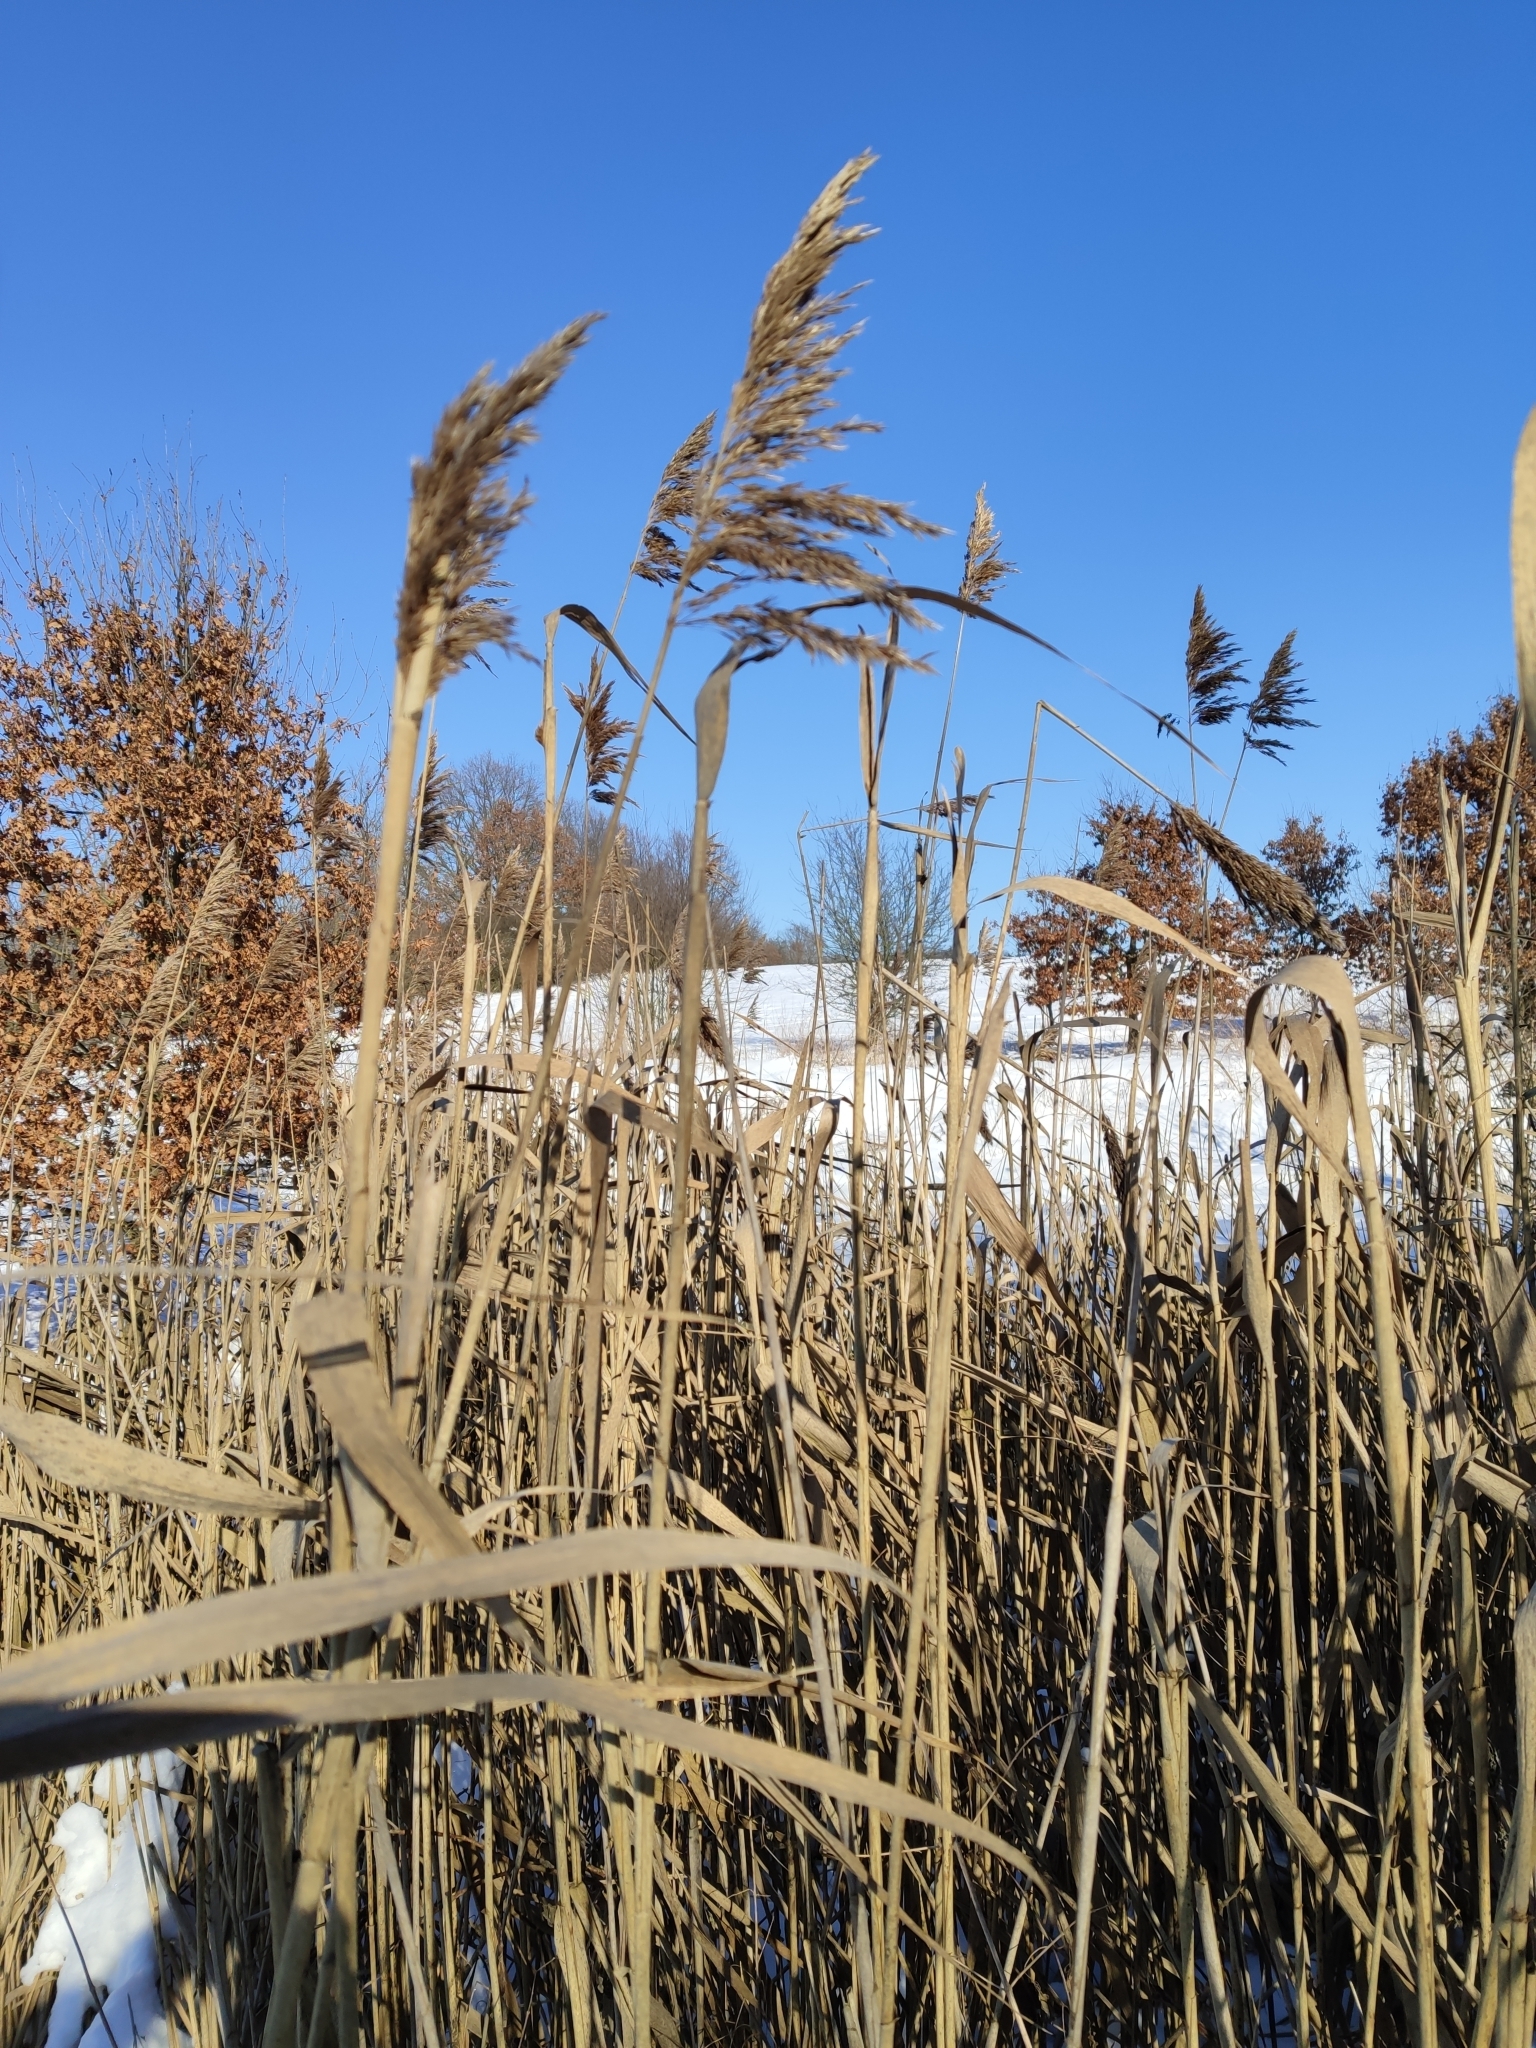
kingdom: Plantae
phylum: Tracheophyta
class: Liliopsida
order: Poales
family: Poaceae
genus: Phragmites
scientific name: Phragmites australis
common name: Common reed
